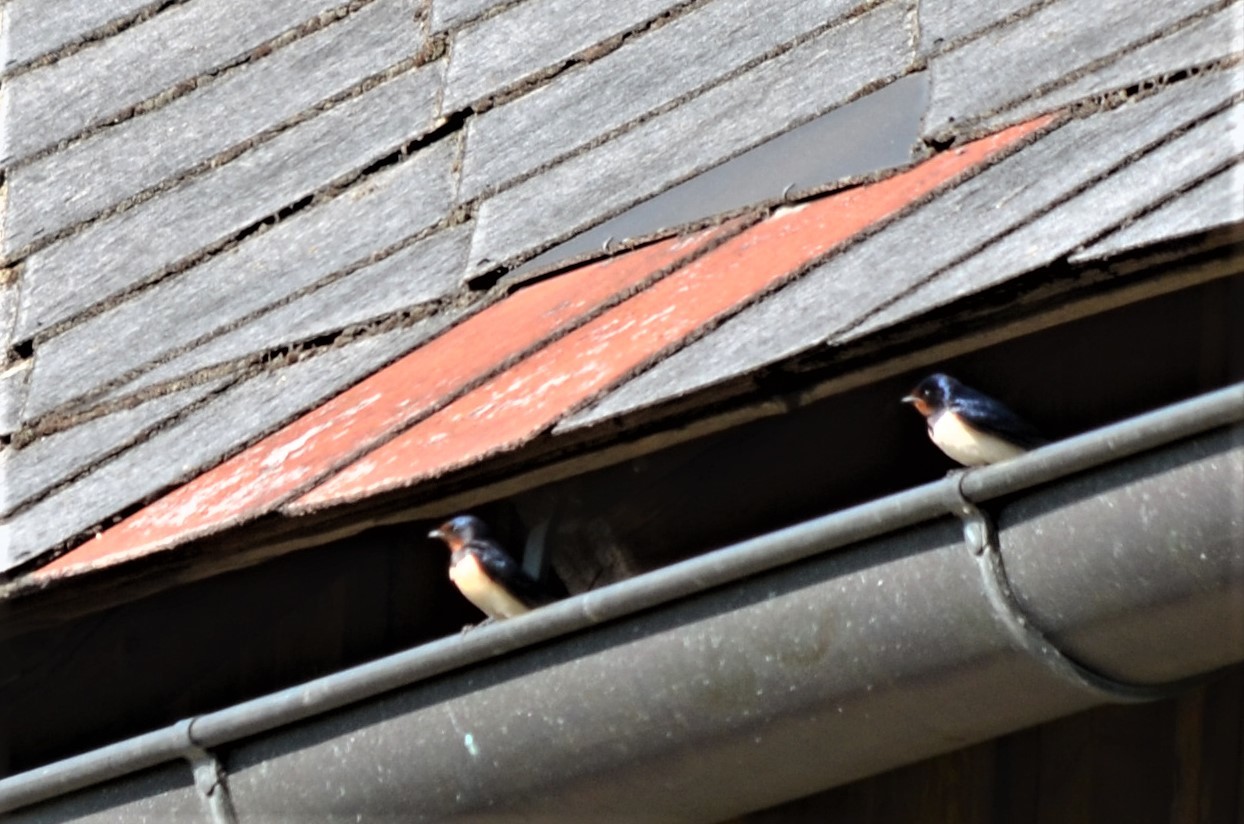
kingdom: Animalia
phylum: Chordata
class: Aves
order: Passeriformes
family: Hirundinidae
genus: Hirundo
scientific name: Hirundo rustica
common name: Barn swallow
